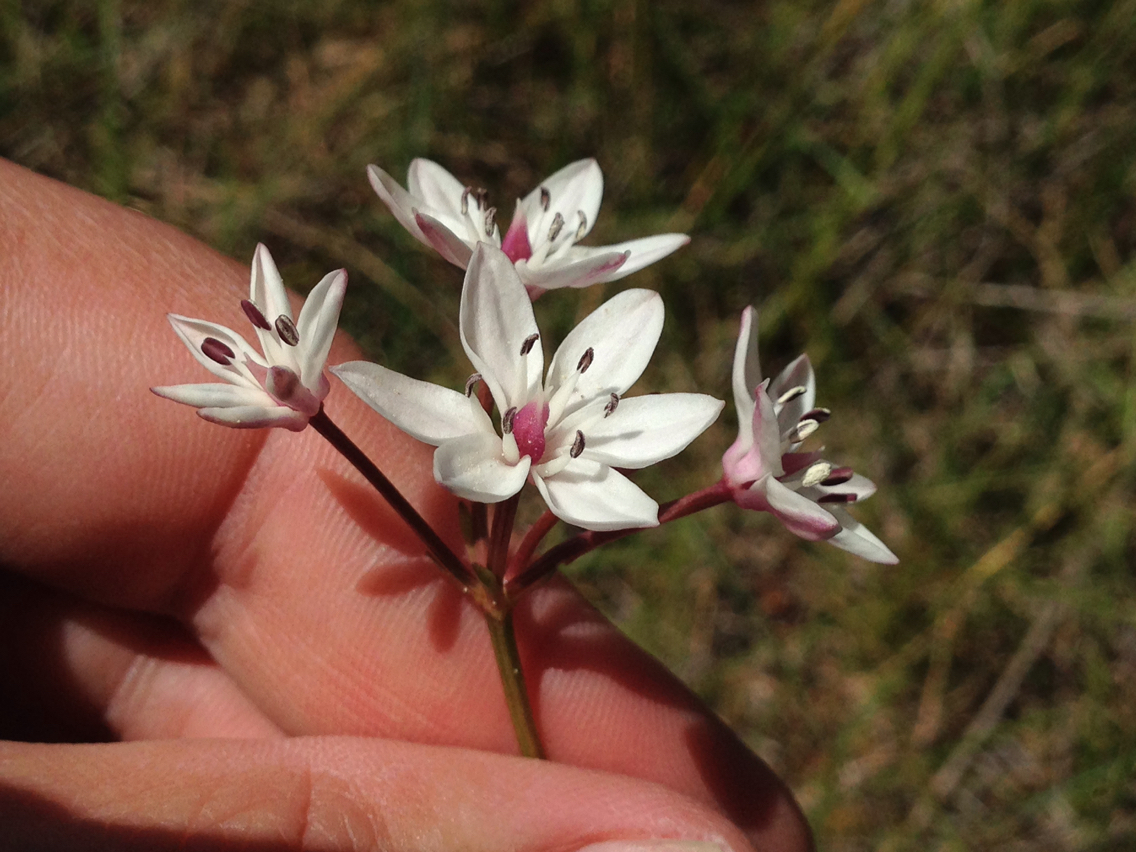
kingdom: Plantae
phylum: Tracheophyta
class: Liliopsida
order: Liliales
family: Colchicaceae
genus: Burchardia
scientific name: Burchardia umbellata
